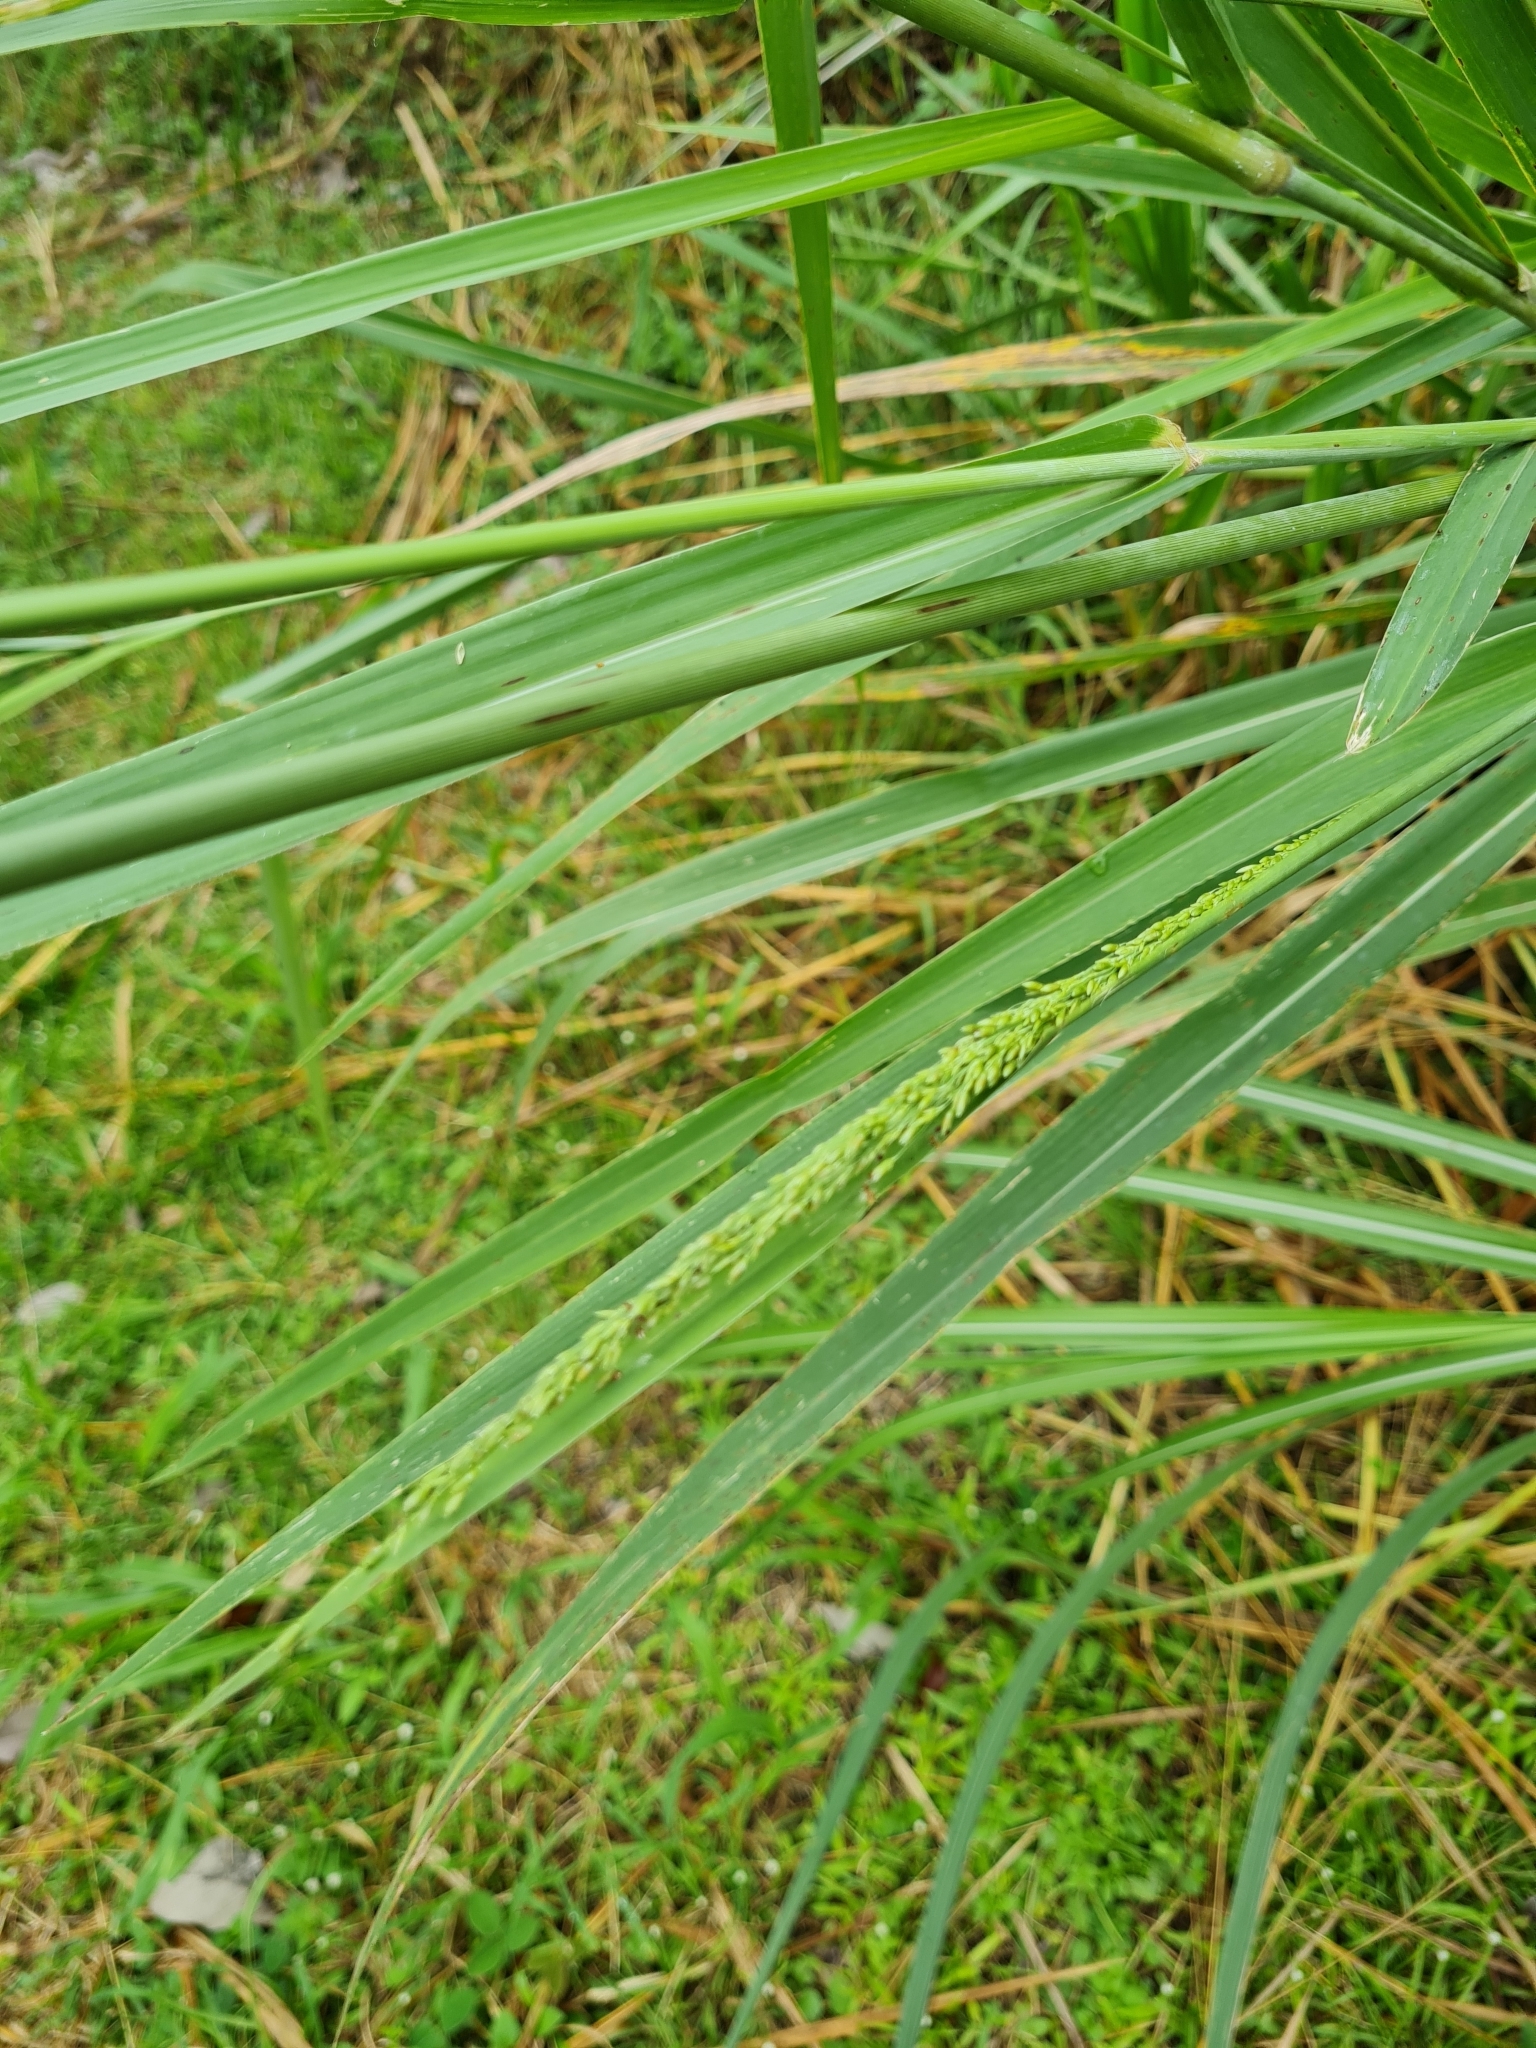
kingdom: Plantae
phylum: Tracheophyta
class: Liliopsida
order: Poales
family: Poaceae
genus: Megathyrsus
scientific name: Megathyrsus maximus
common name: Guineagrass
